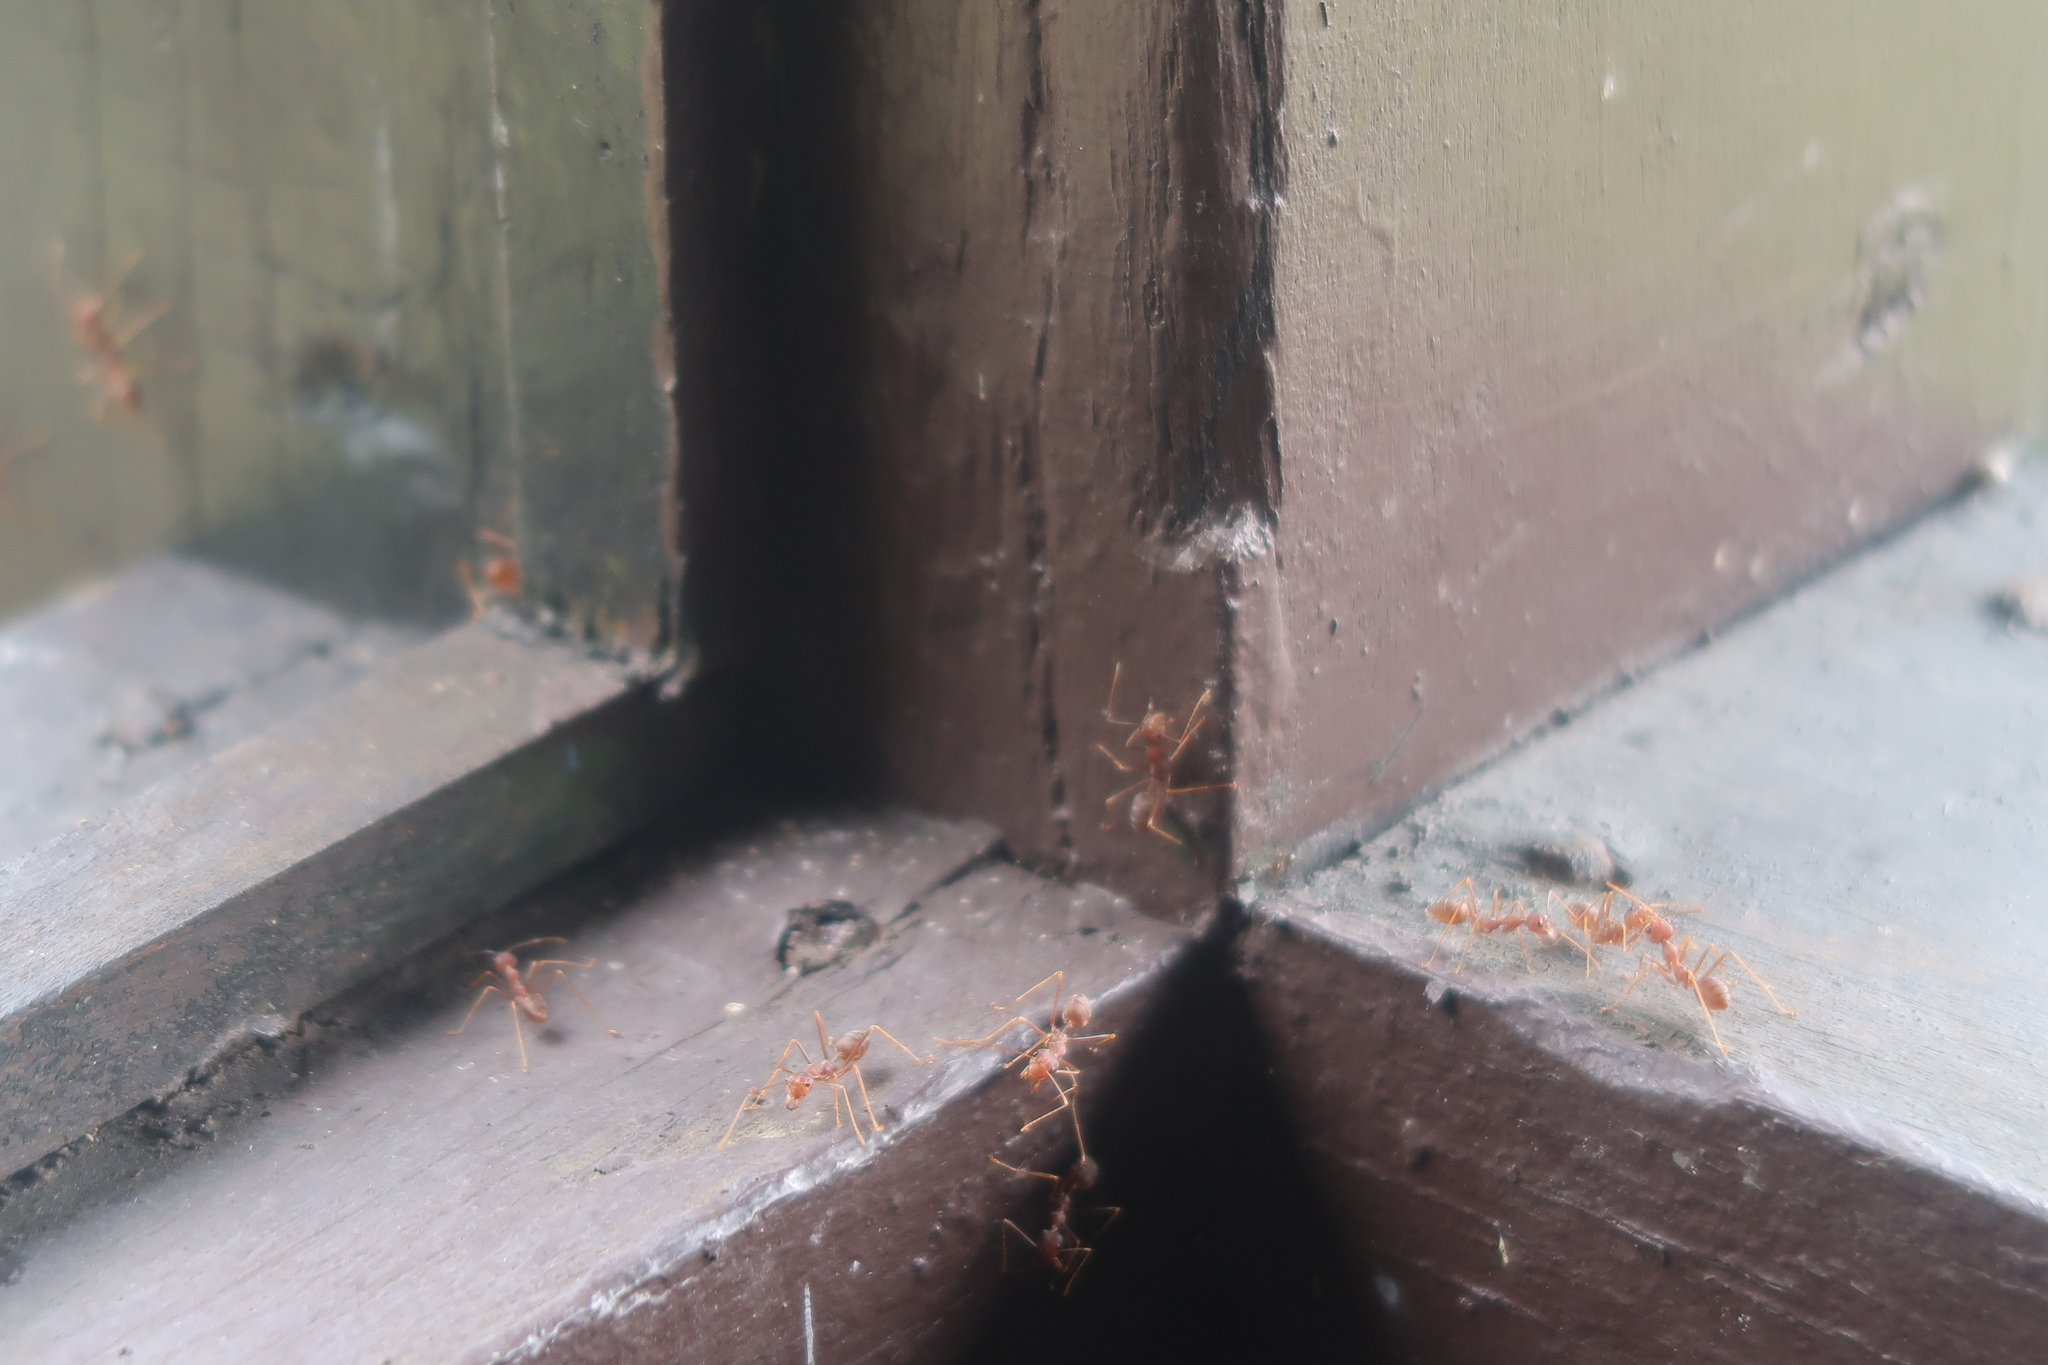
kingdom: Animalia
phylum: Arthropoda
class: Insecta
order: Hymenoptera
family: Formicidae
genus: Oecophylla
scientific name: Oecophylla smaragdina
